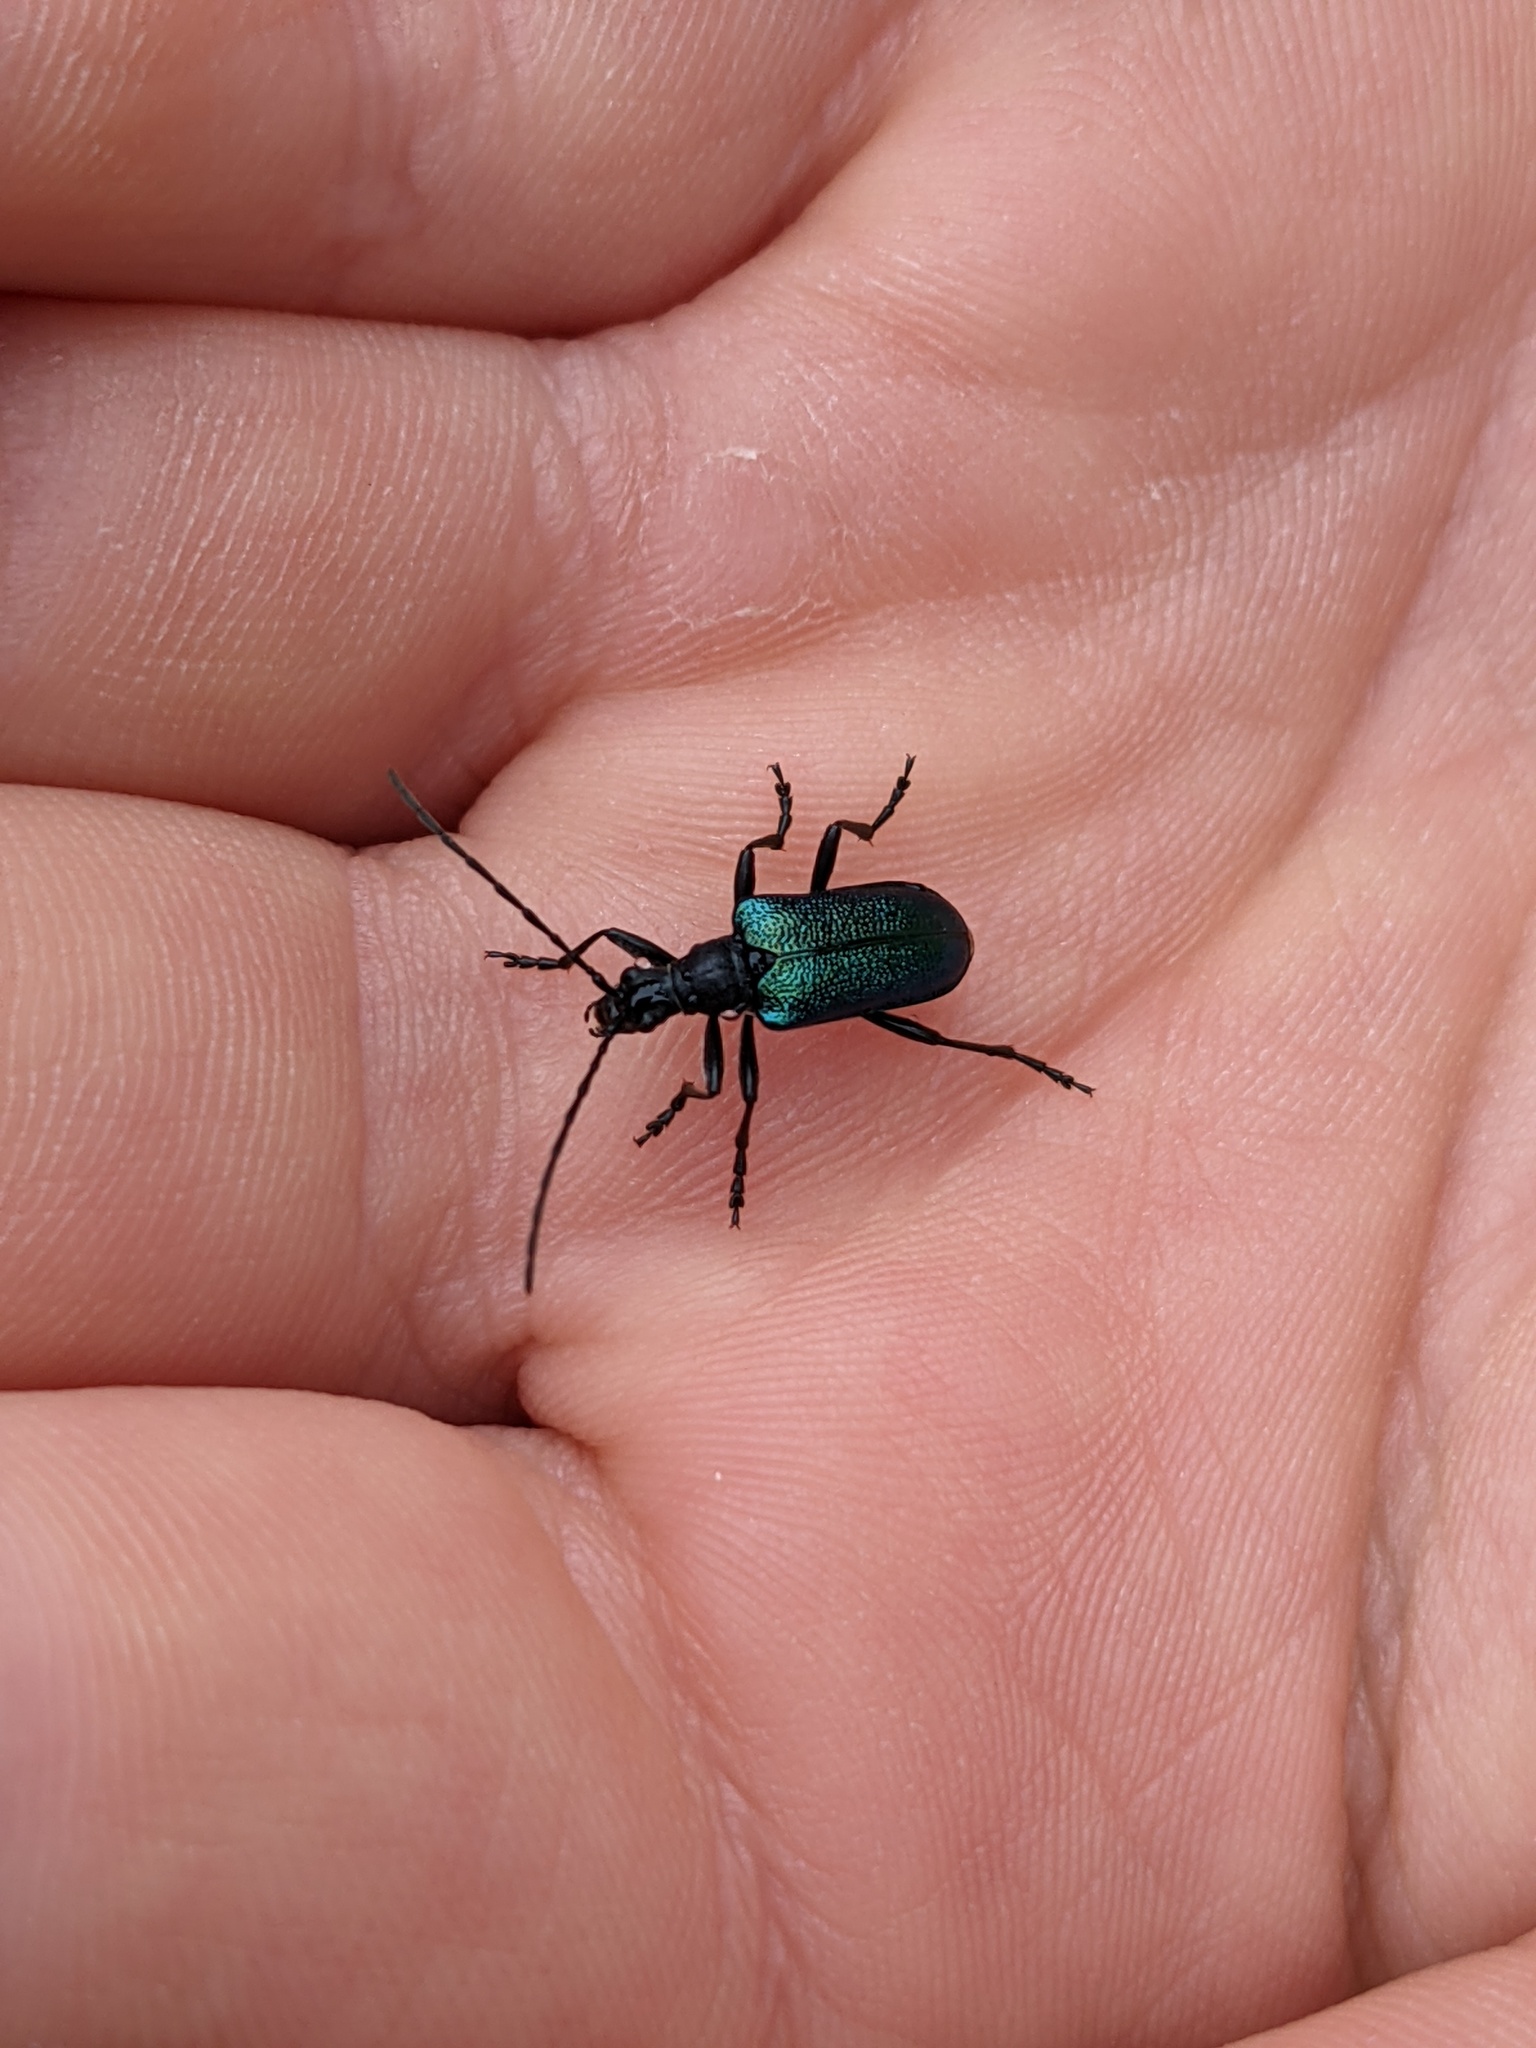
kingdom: Animalia
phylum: Arthropoda
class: Insecta
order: Coleoptera
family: Cerambycidae
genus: Gaurotes
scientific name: Gaurotes virginea
